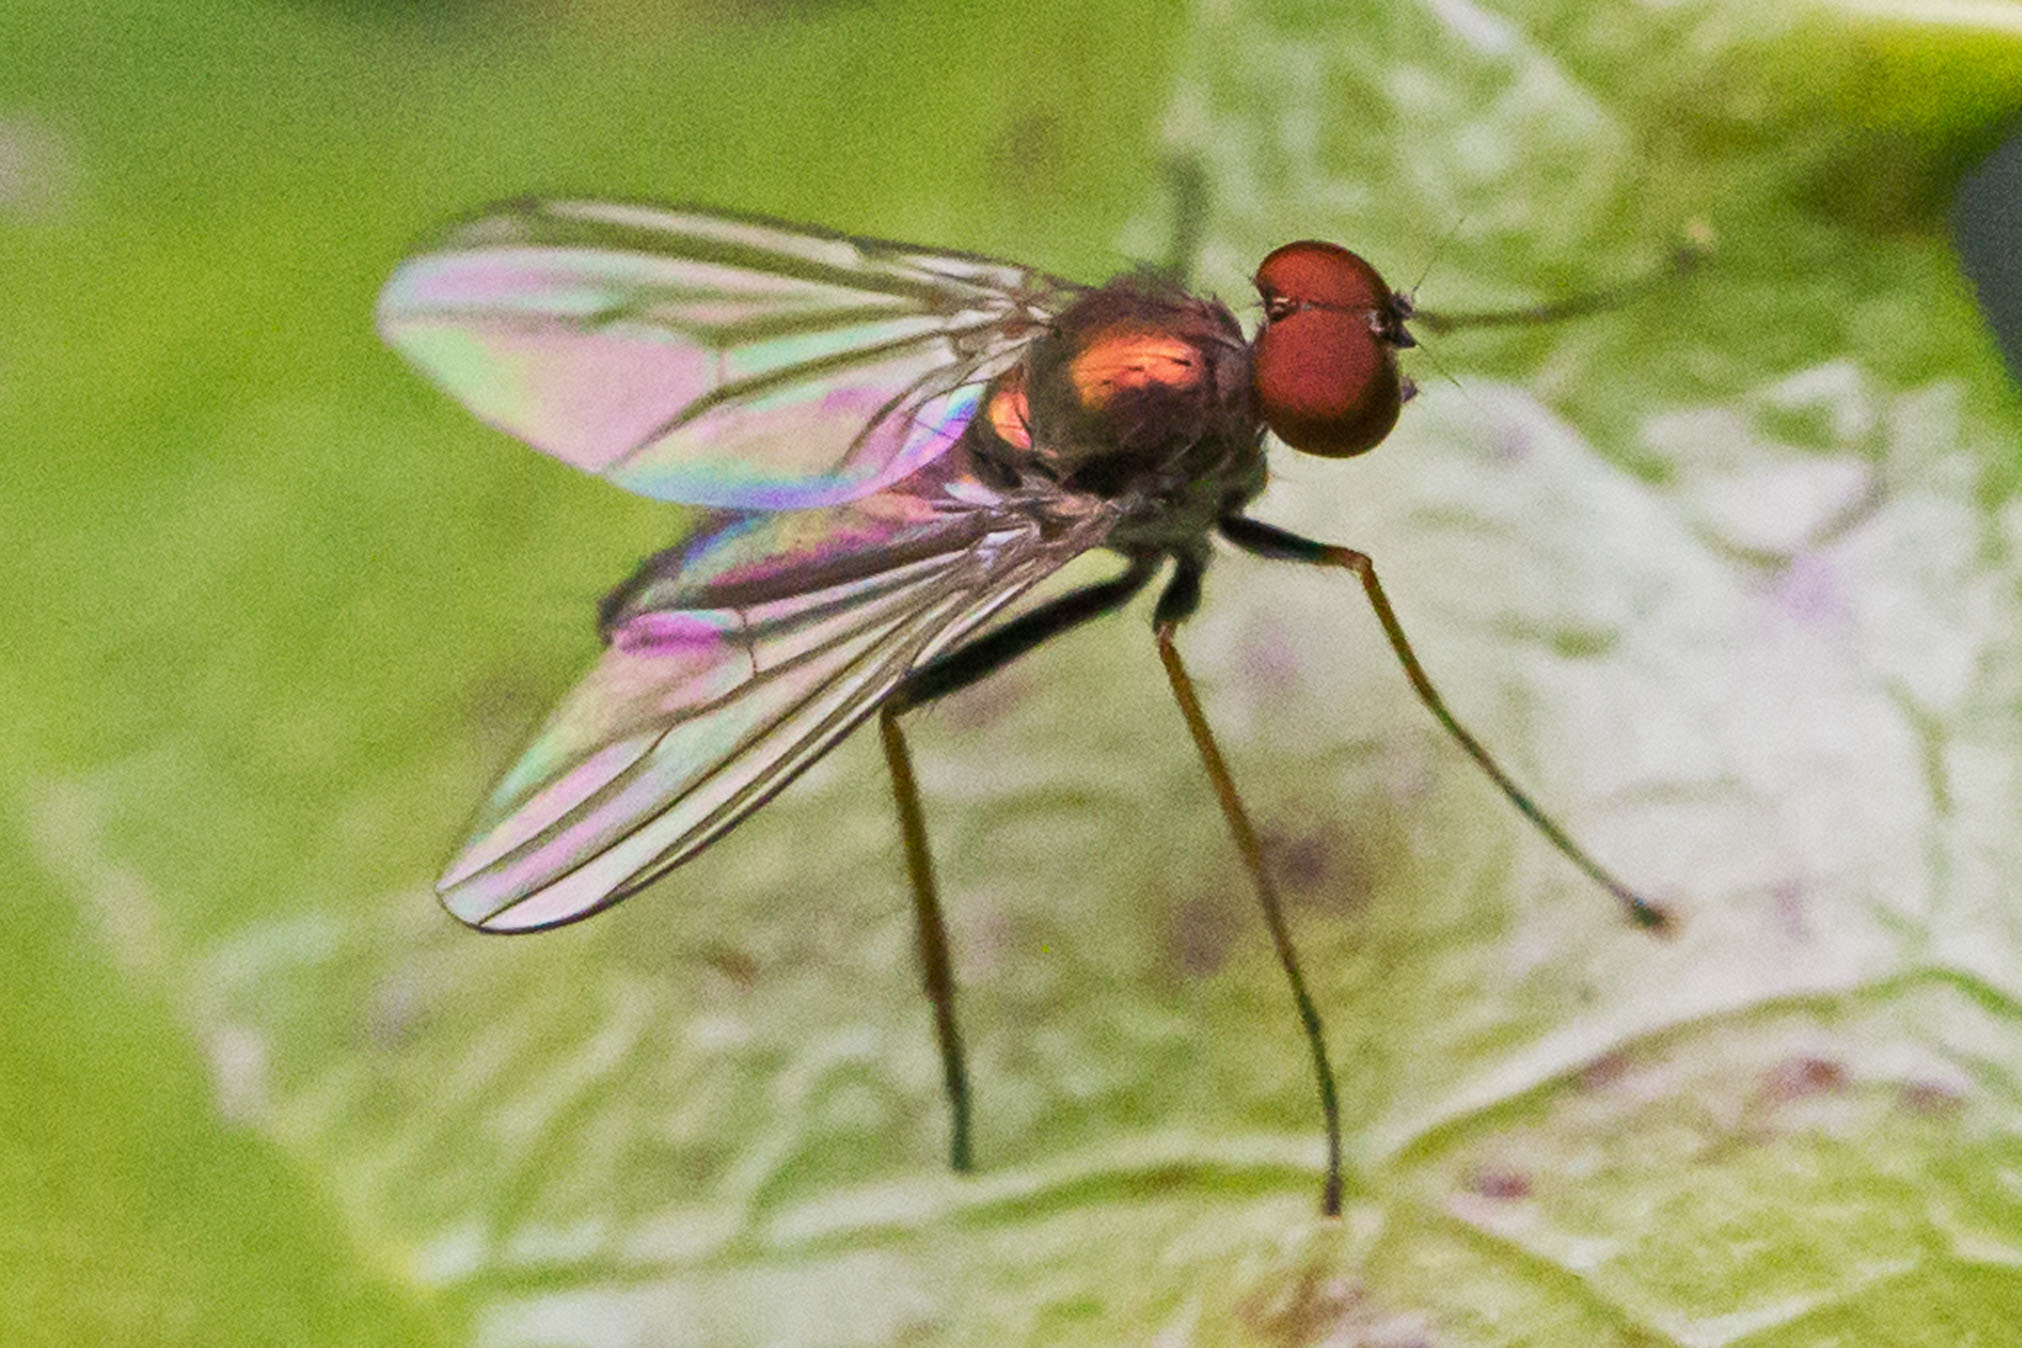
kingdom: Animalia
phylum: Arthropoda
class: Insecta
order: Diptera
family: Dolichopodidae
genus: Chrysotus
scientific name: Chrysotus spectabilis
